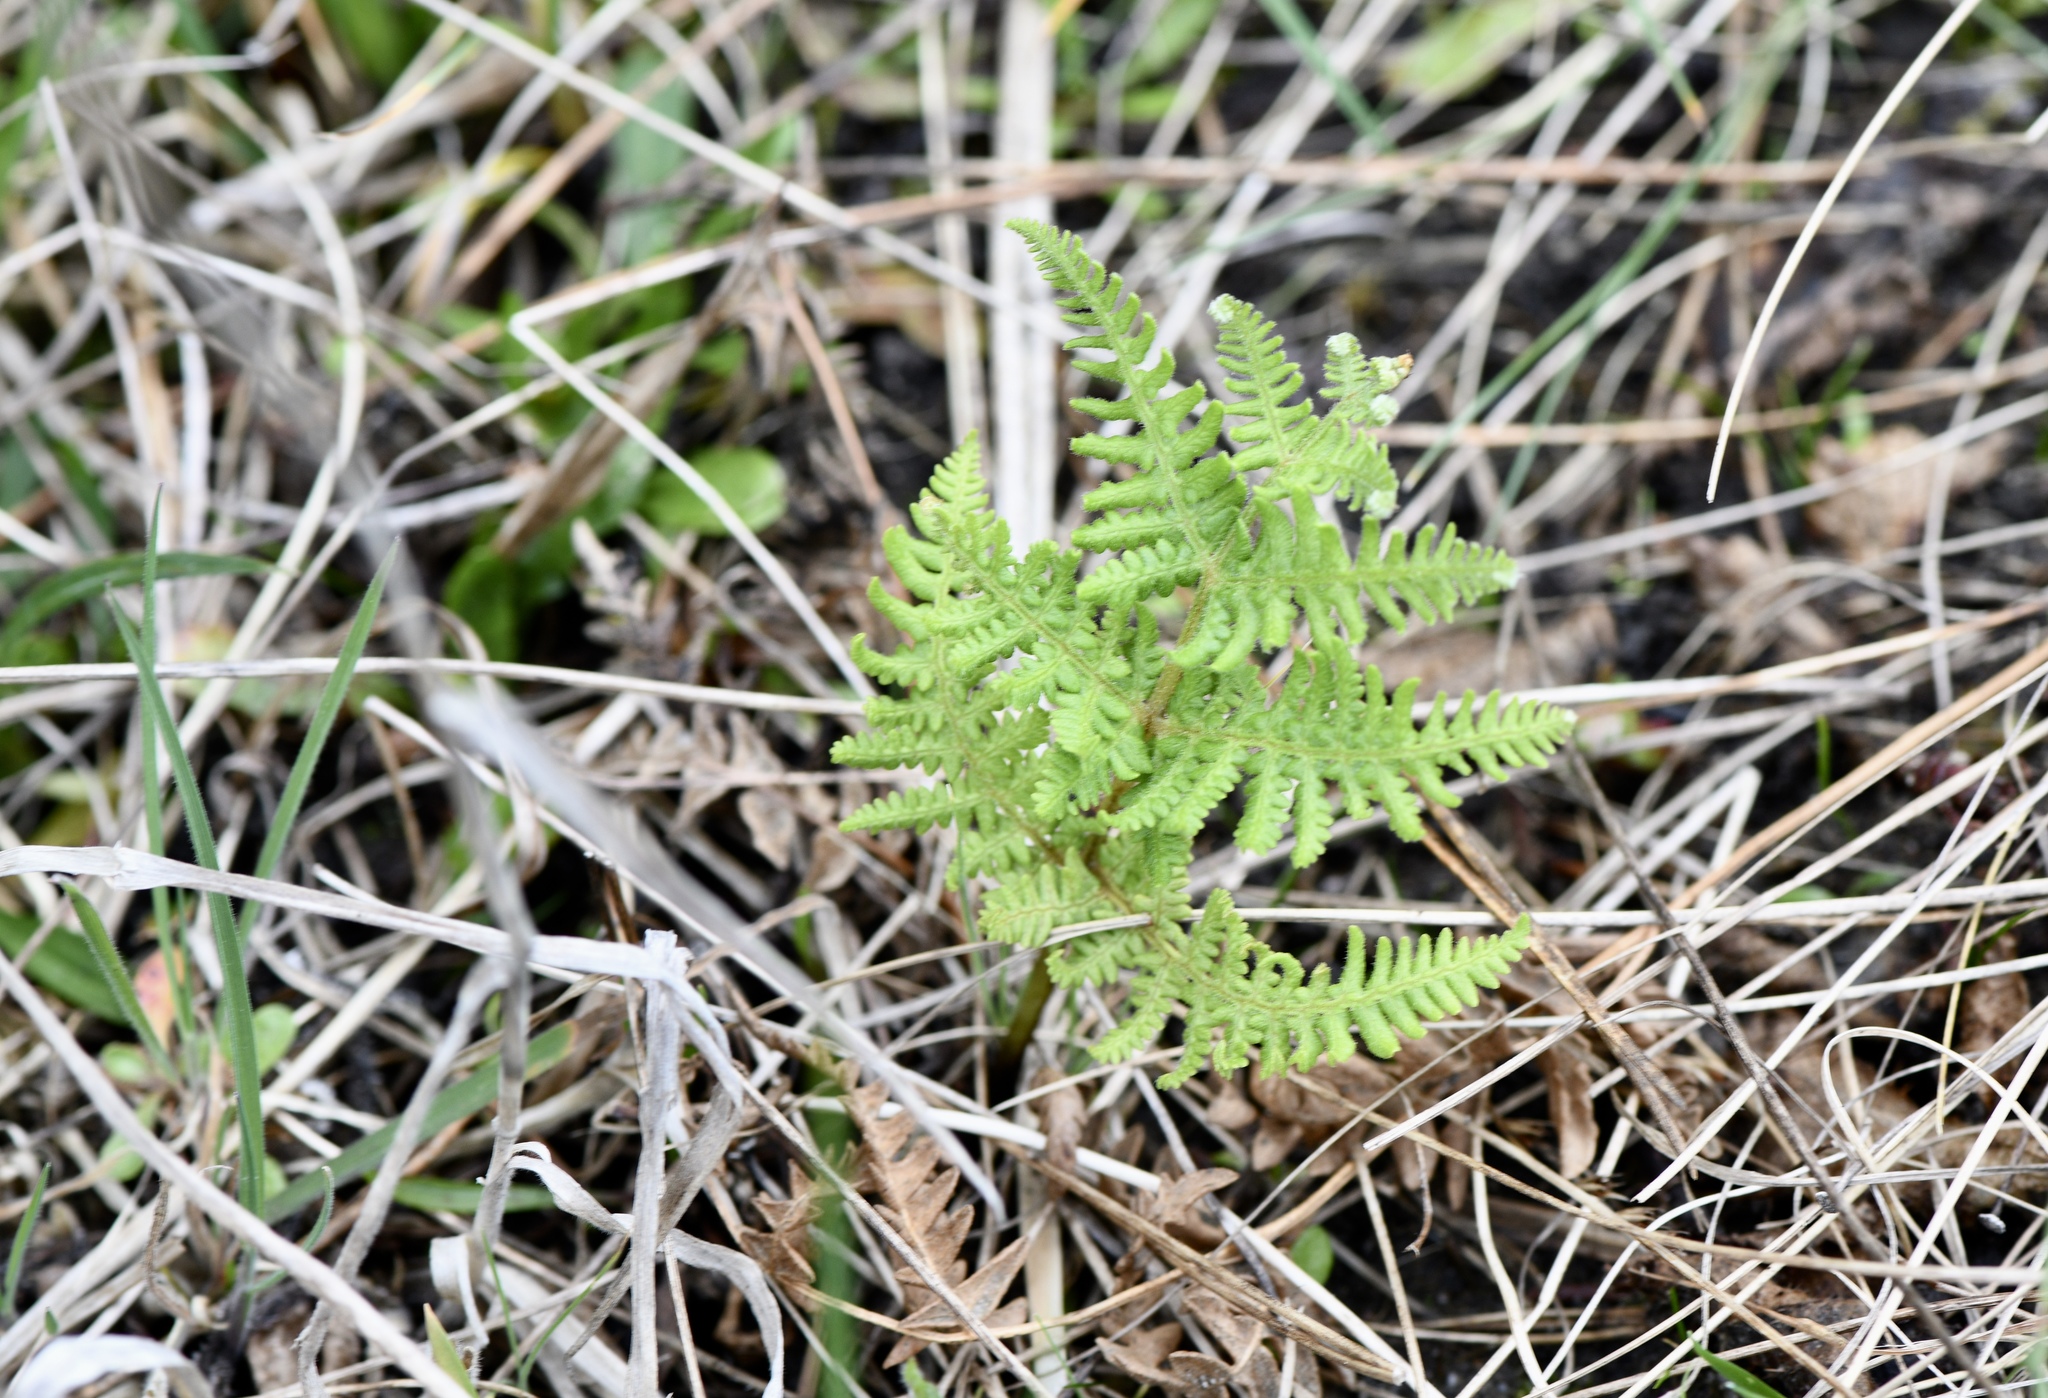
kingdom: Plantae
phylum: Tracheophyta
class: Polypodiopsida
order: Polypodiales
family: Dennstaedtiaceae
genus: Pteridium
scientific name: Pteridium aquilinum
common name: Bracken
